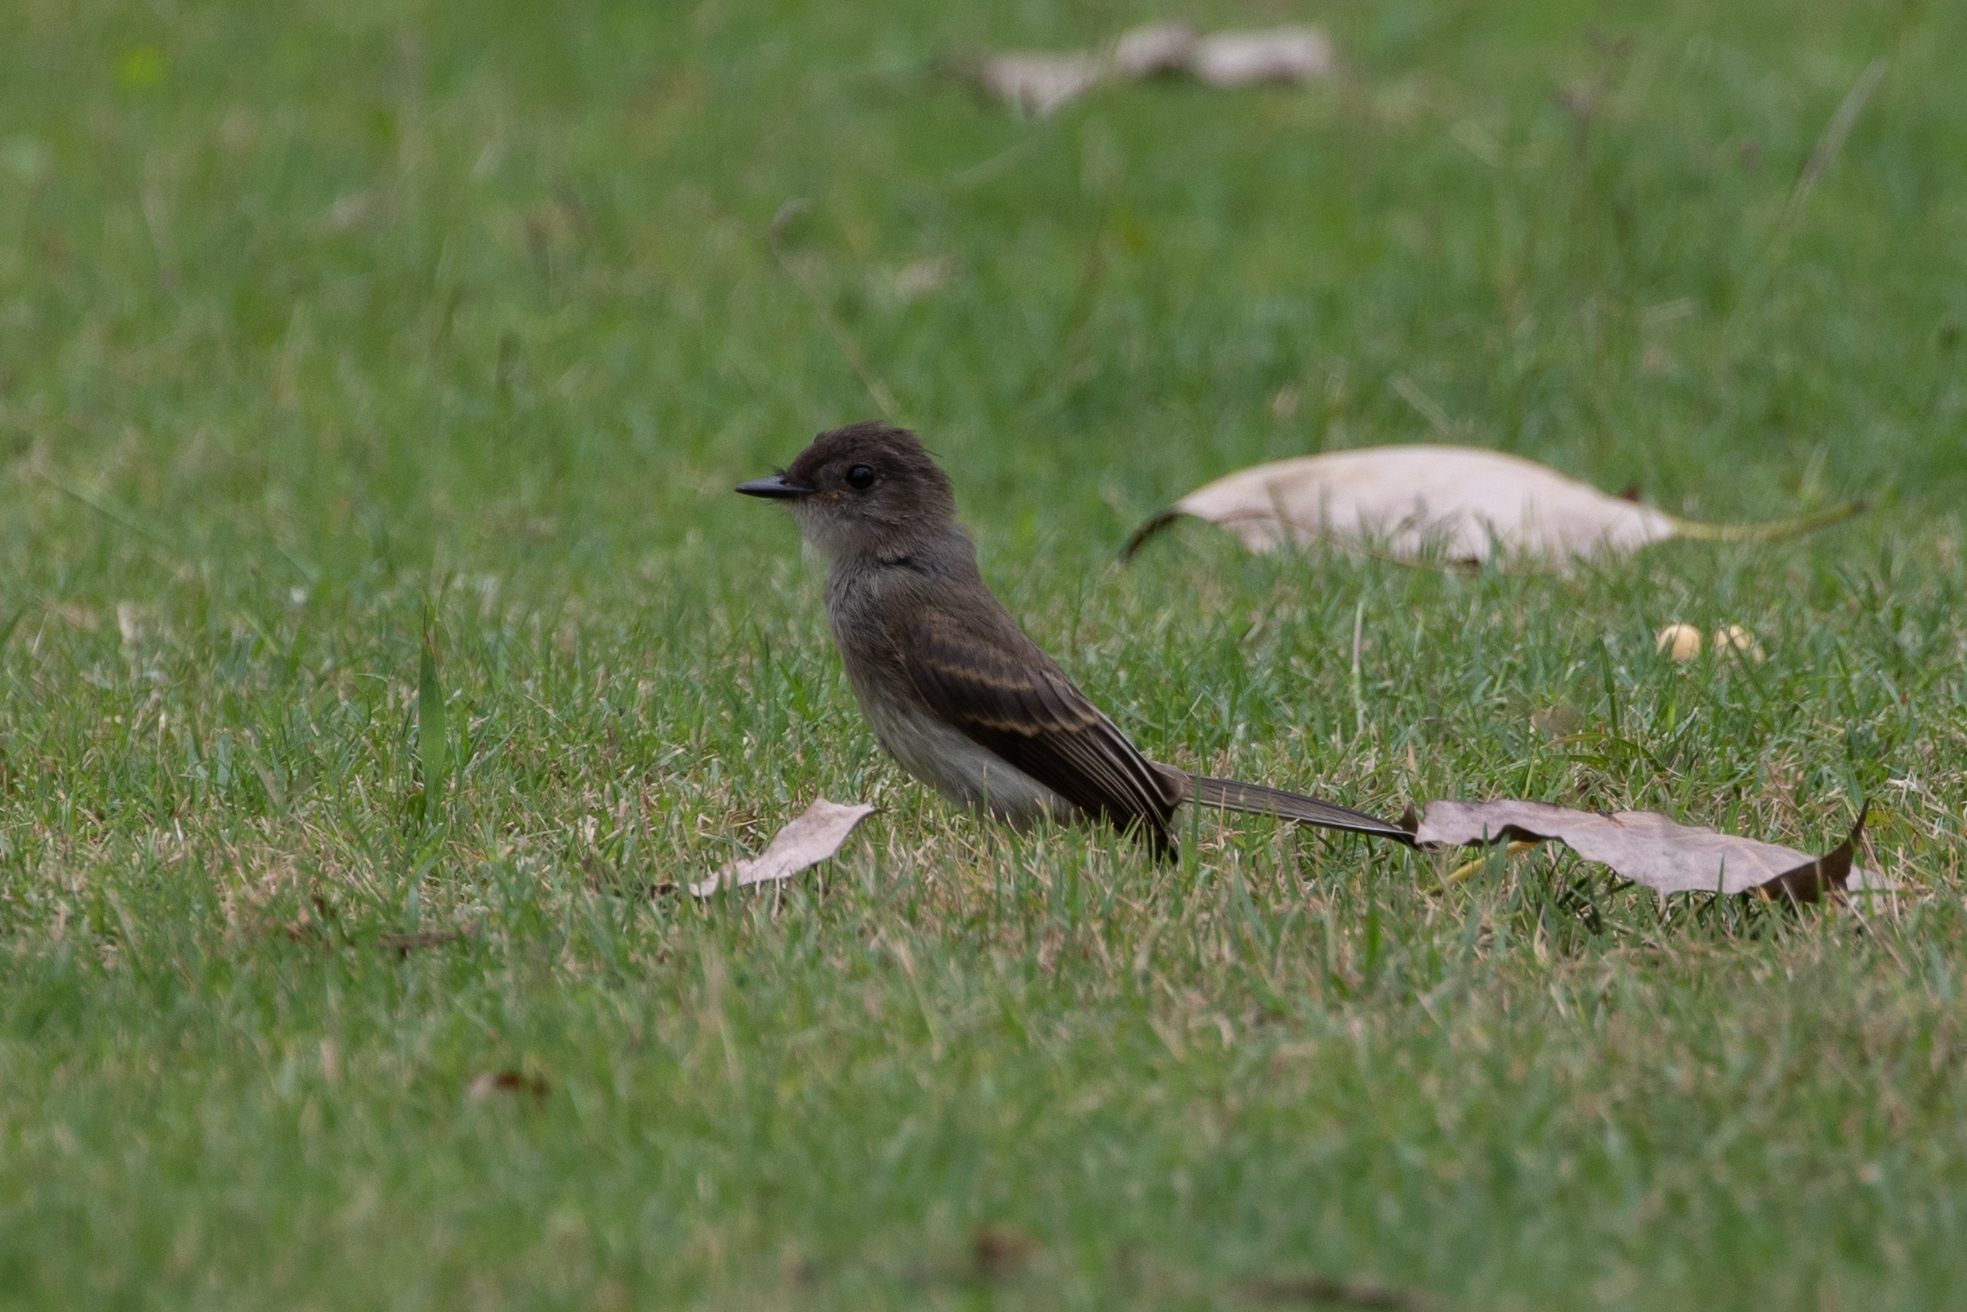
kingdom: Animalia
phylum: Chordata
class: Aves
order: Passeriformes
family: Tyrannidae
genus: Sayornis
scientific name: Sayornis phoebe
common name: Eastern phoebe
